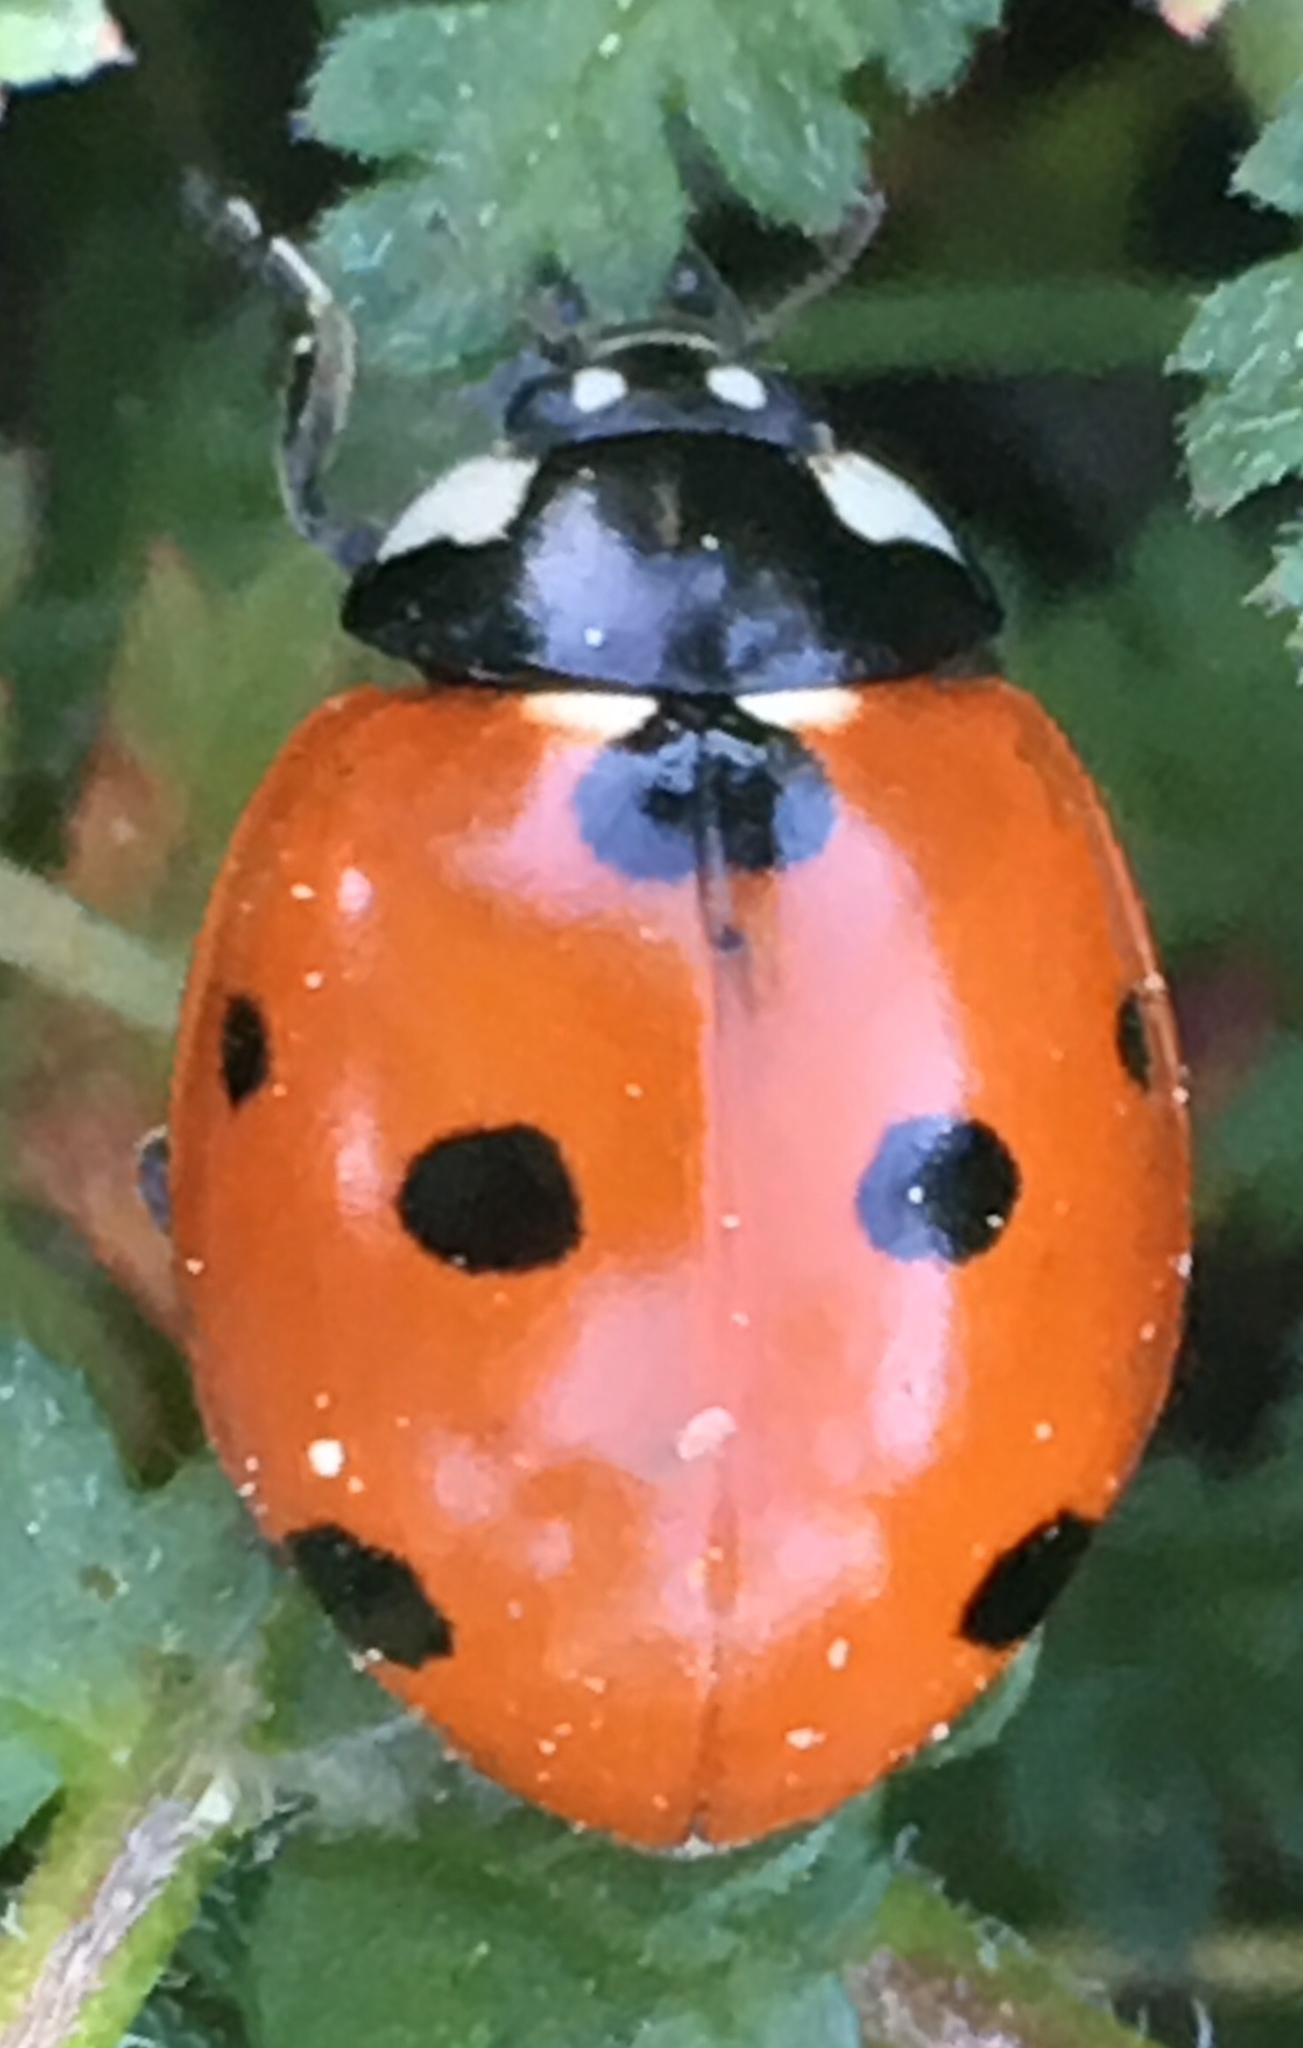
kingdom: Animalia
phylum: Arthropoda
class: Insecta
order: Coleoptera
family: Coccinellidae
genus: Coccinella
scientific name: Coccinella septempunctata
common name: Sevenspotted lady beetle
